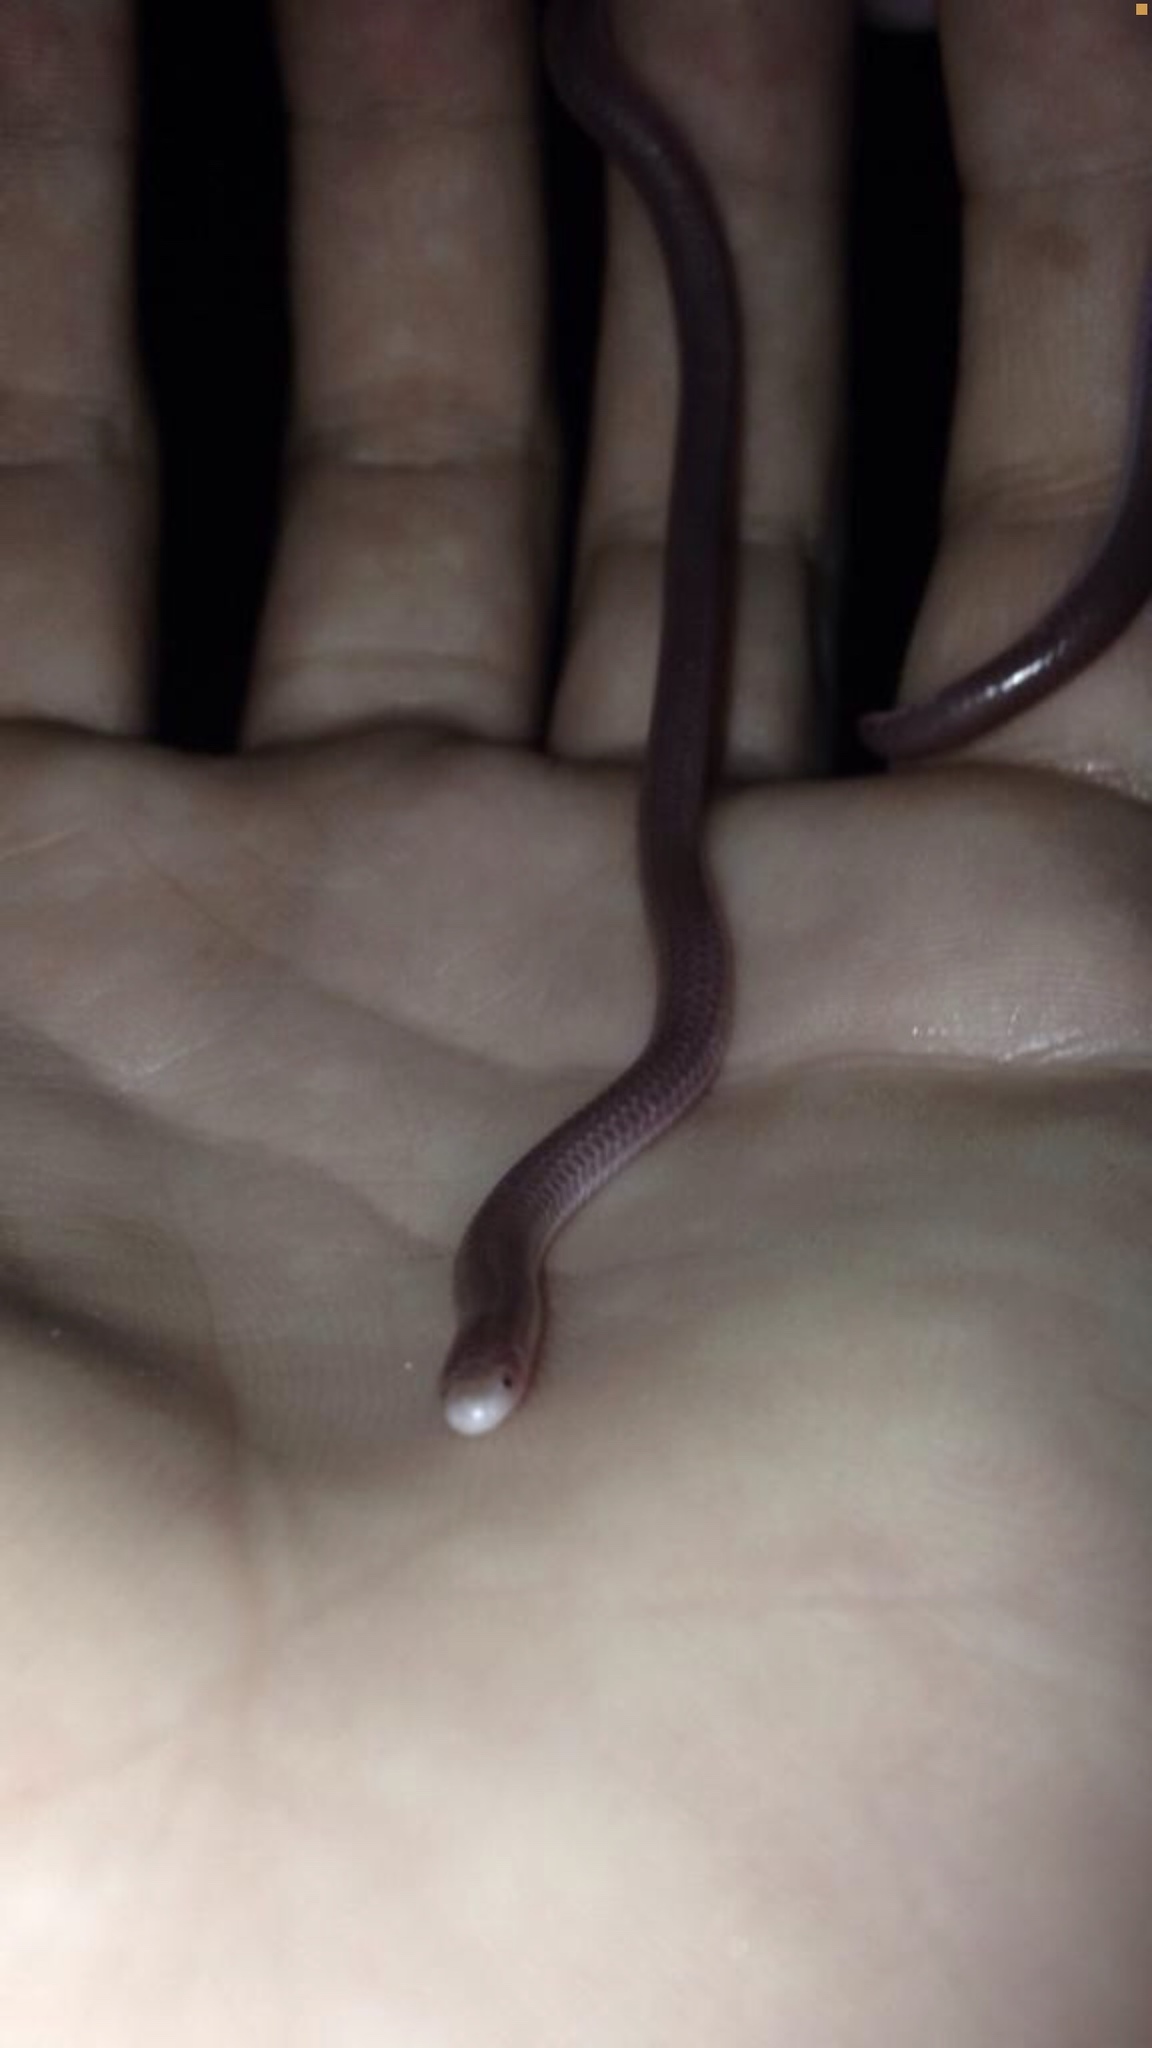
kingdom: Animalia
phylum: Chordata
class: Squamata
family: Leptotyphlopidae
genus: Rena
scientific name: Rena humilis
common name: Western threadsnake
